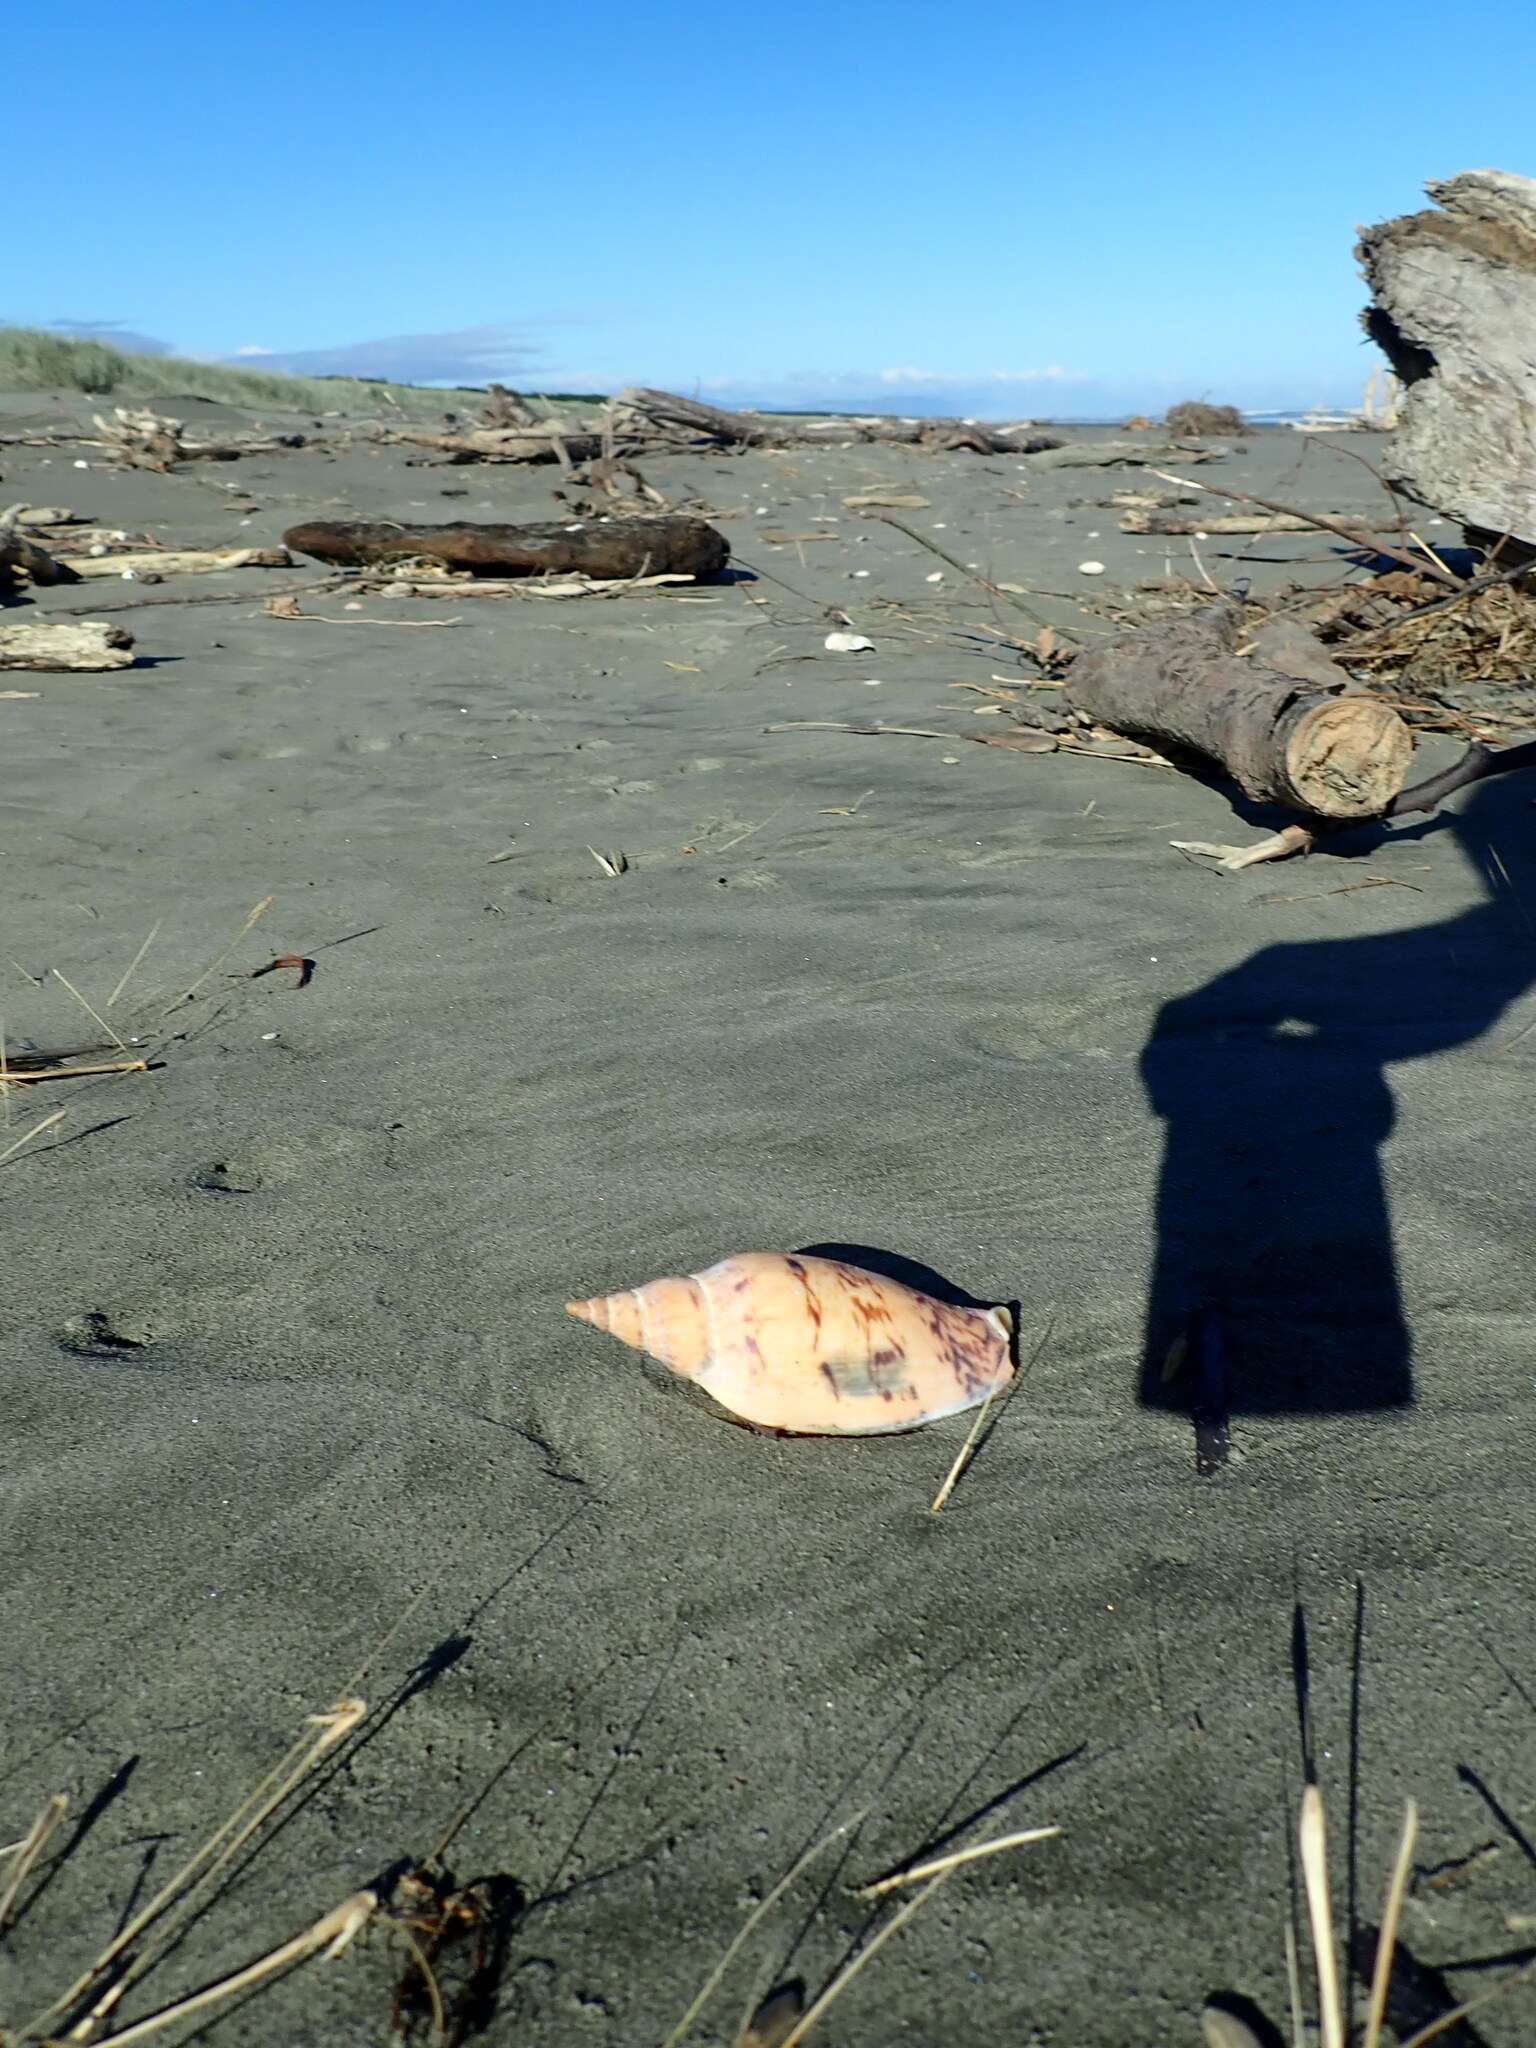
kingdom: Animalia
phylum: Mollusca
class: Gastropoda
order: Neogastropoda
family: Volutidae
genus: Alcithoe
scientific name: Alcithoe arabica
